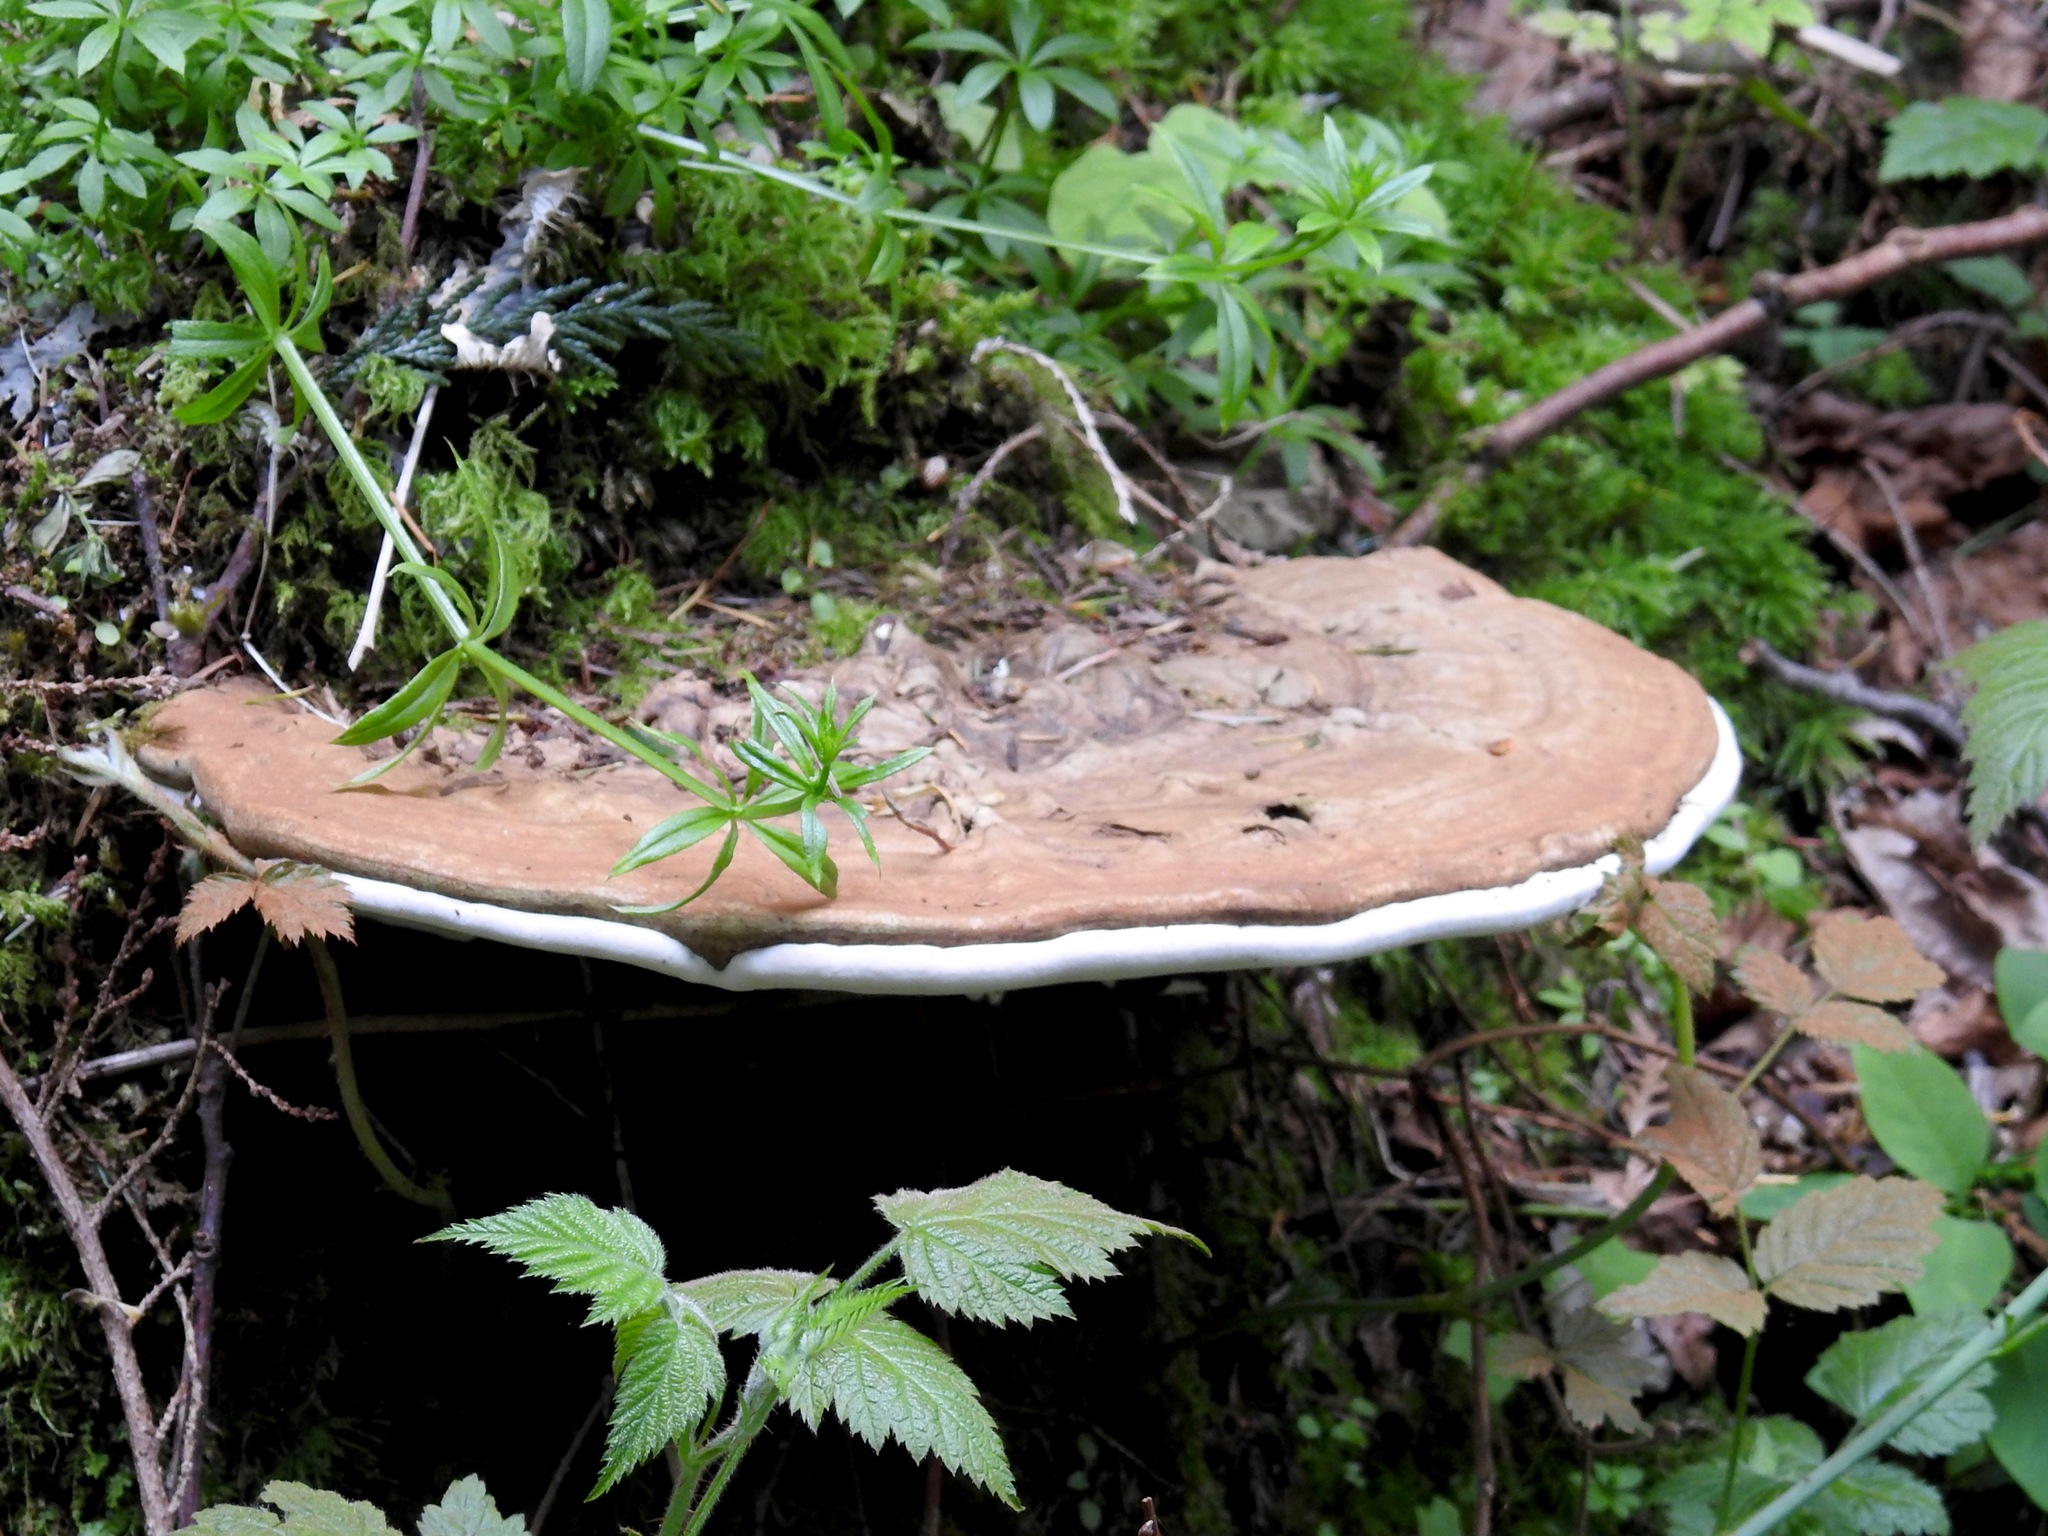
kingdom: Fungi
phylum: Basidiomycota
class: Agaricomycetes
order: Polyporales
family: Polyporaceae
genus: Ganoderma
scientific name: Ganoderma applanatum
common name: Artist's bracket
